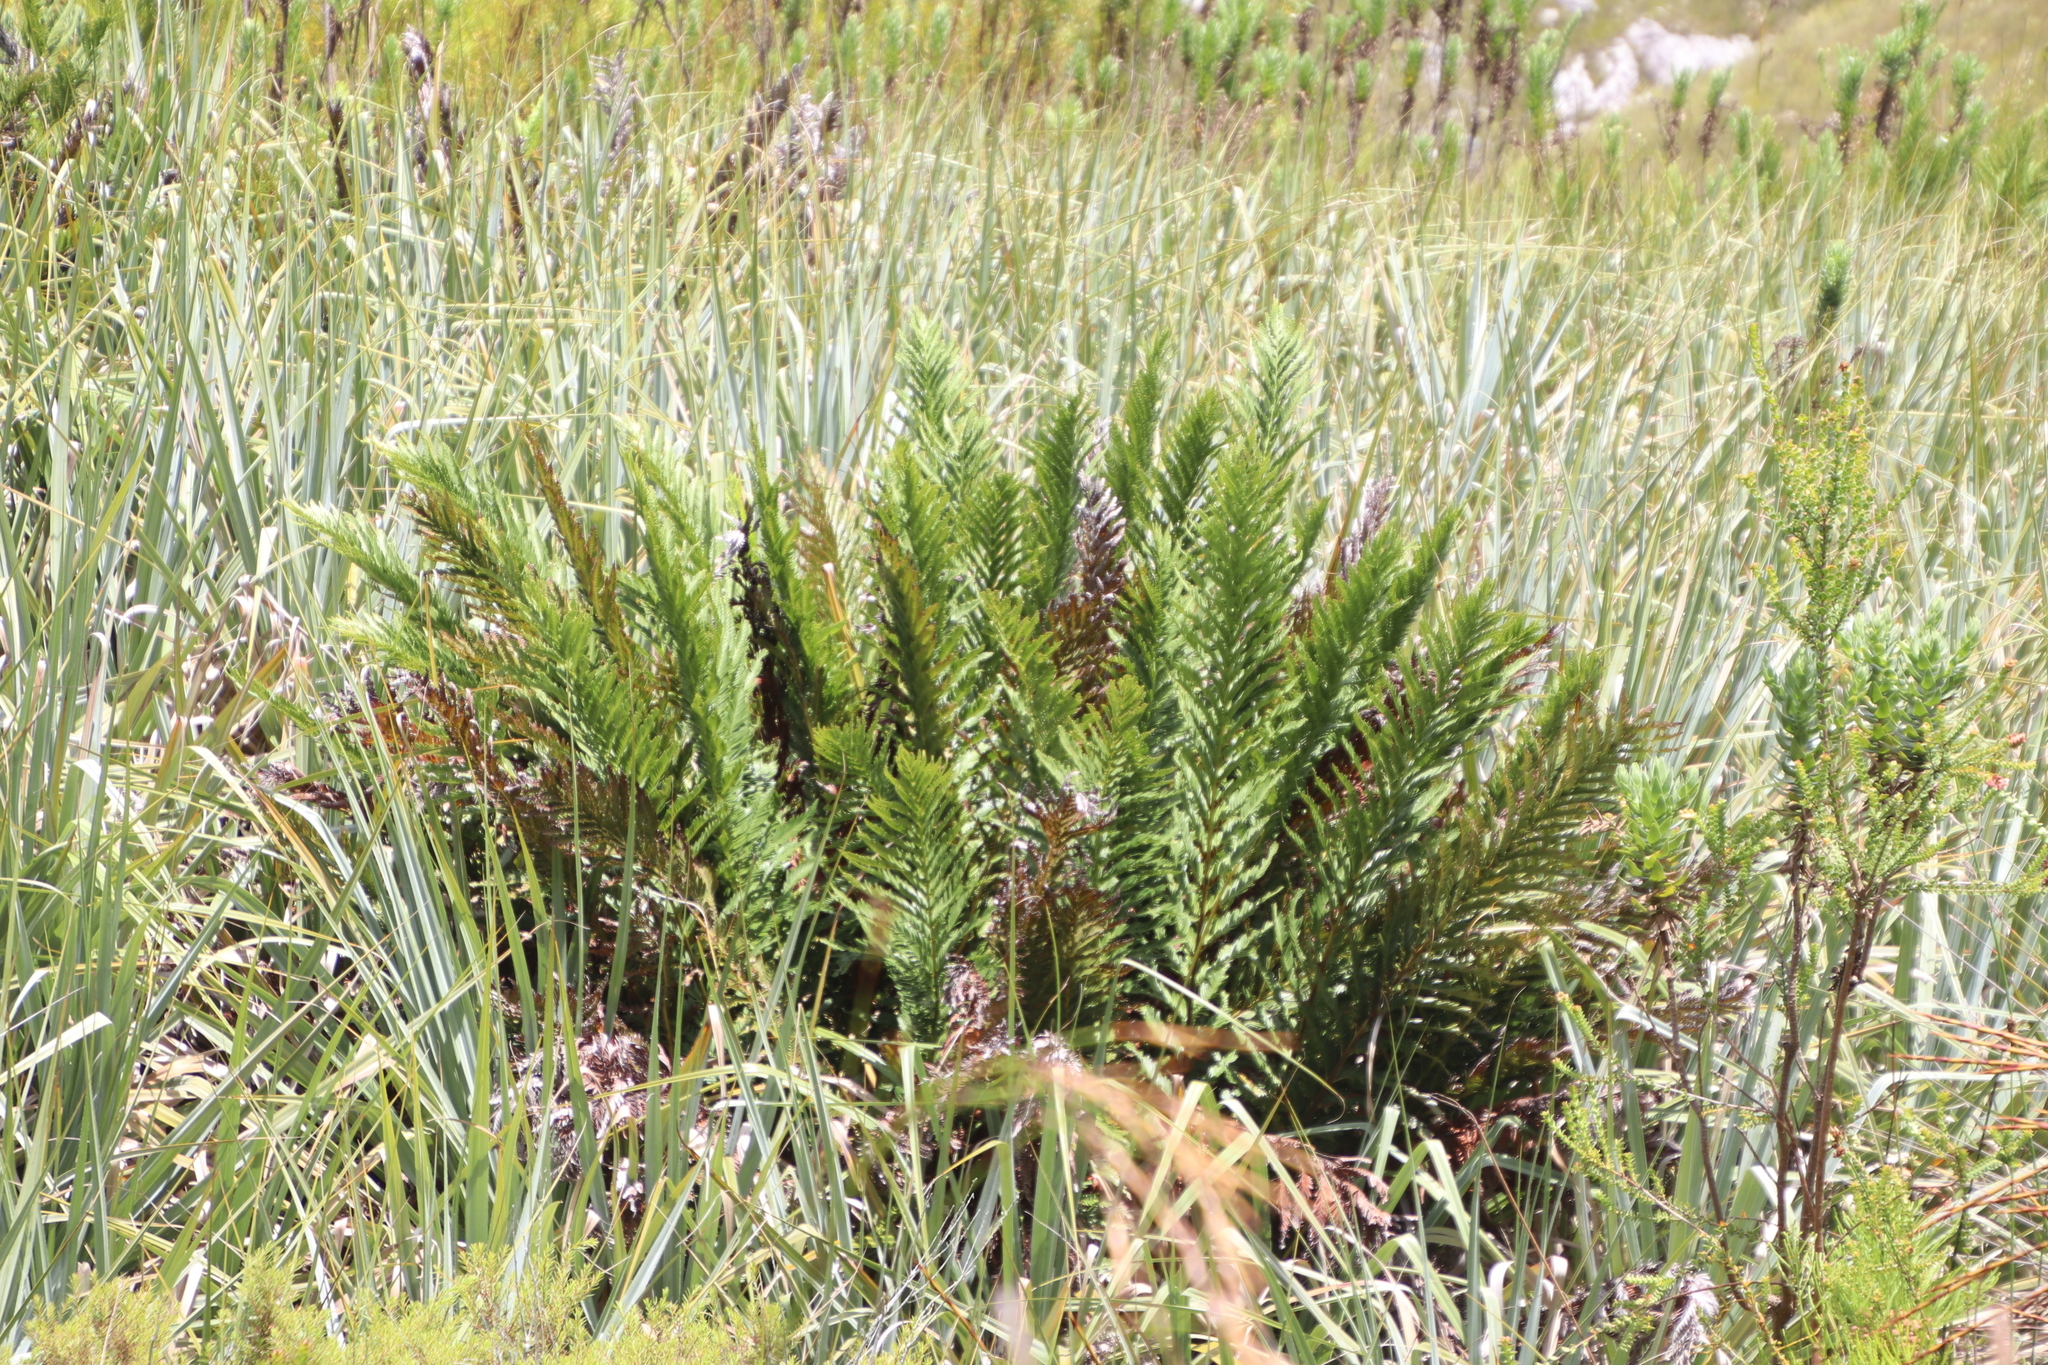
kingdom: Plantae
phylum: Tracheophyta
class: Polypodiopsida
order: Osmundales
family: Osmundaceae
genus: Todea
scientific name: Todea barbara
